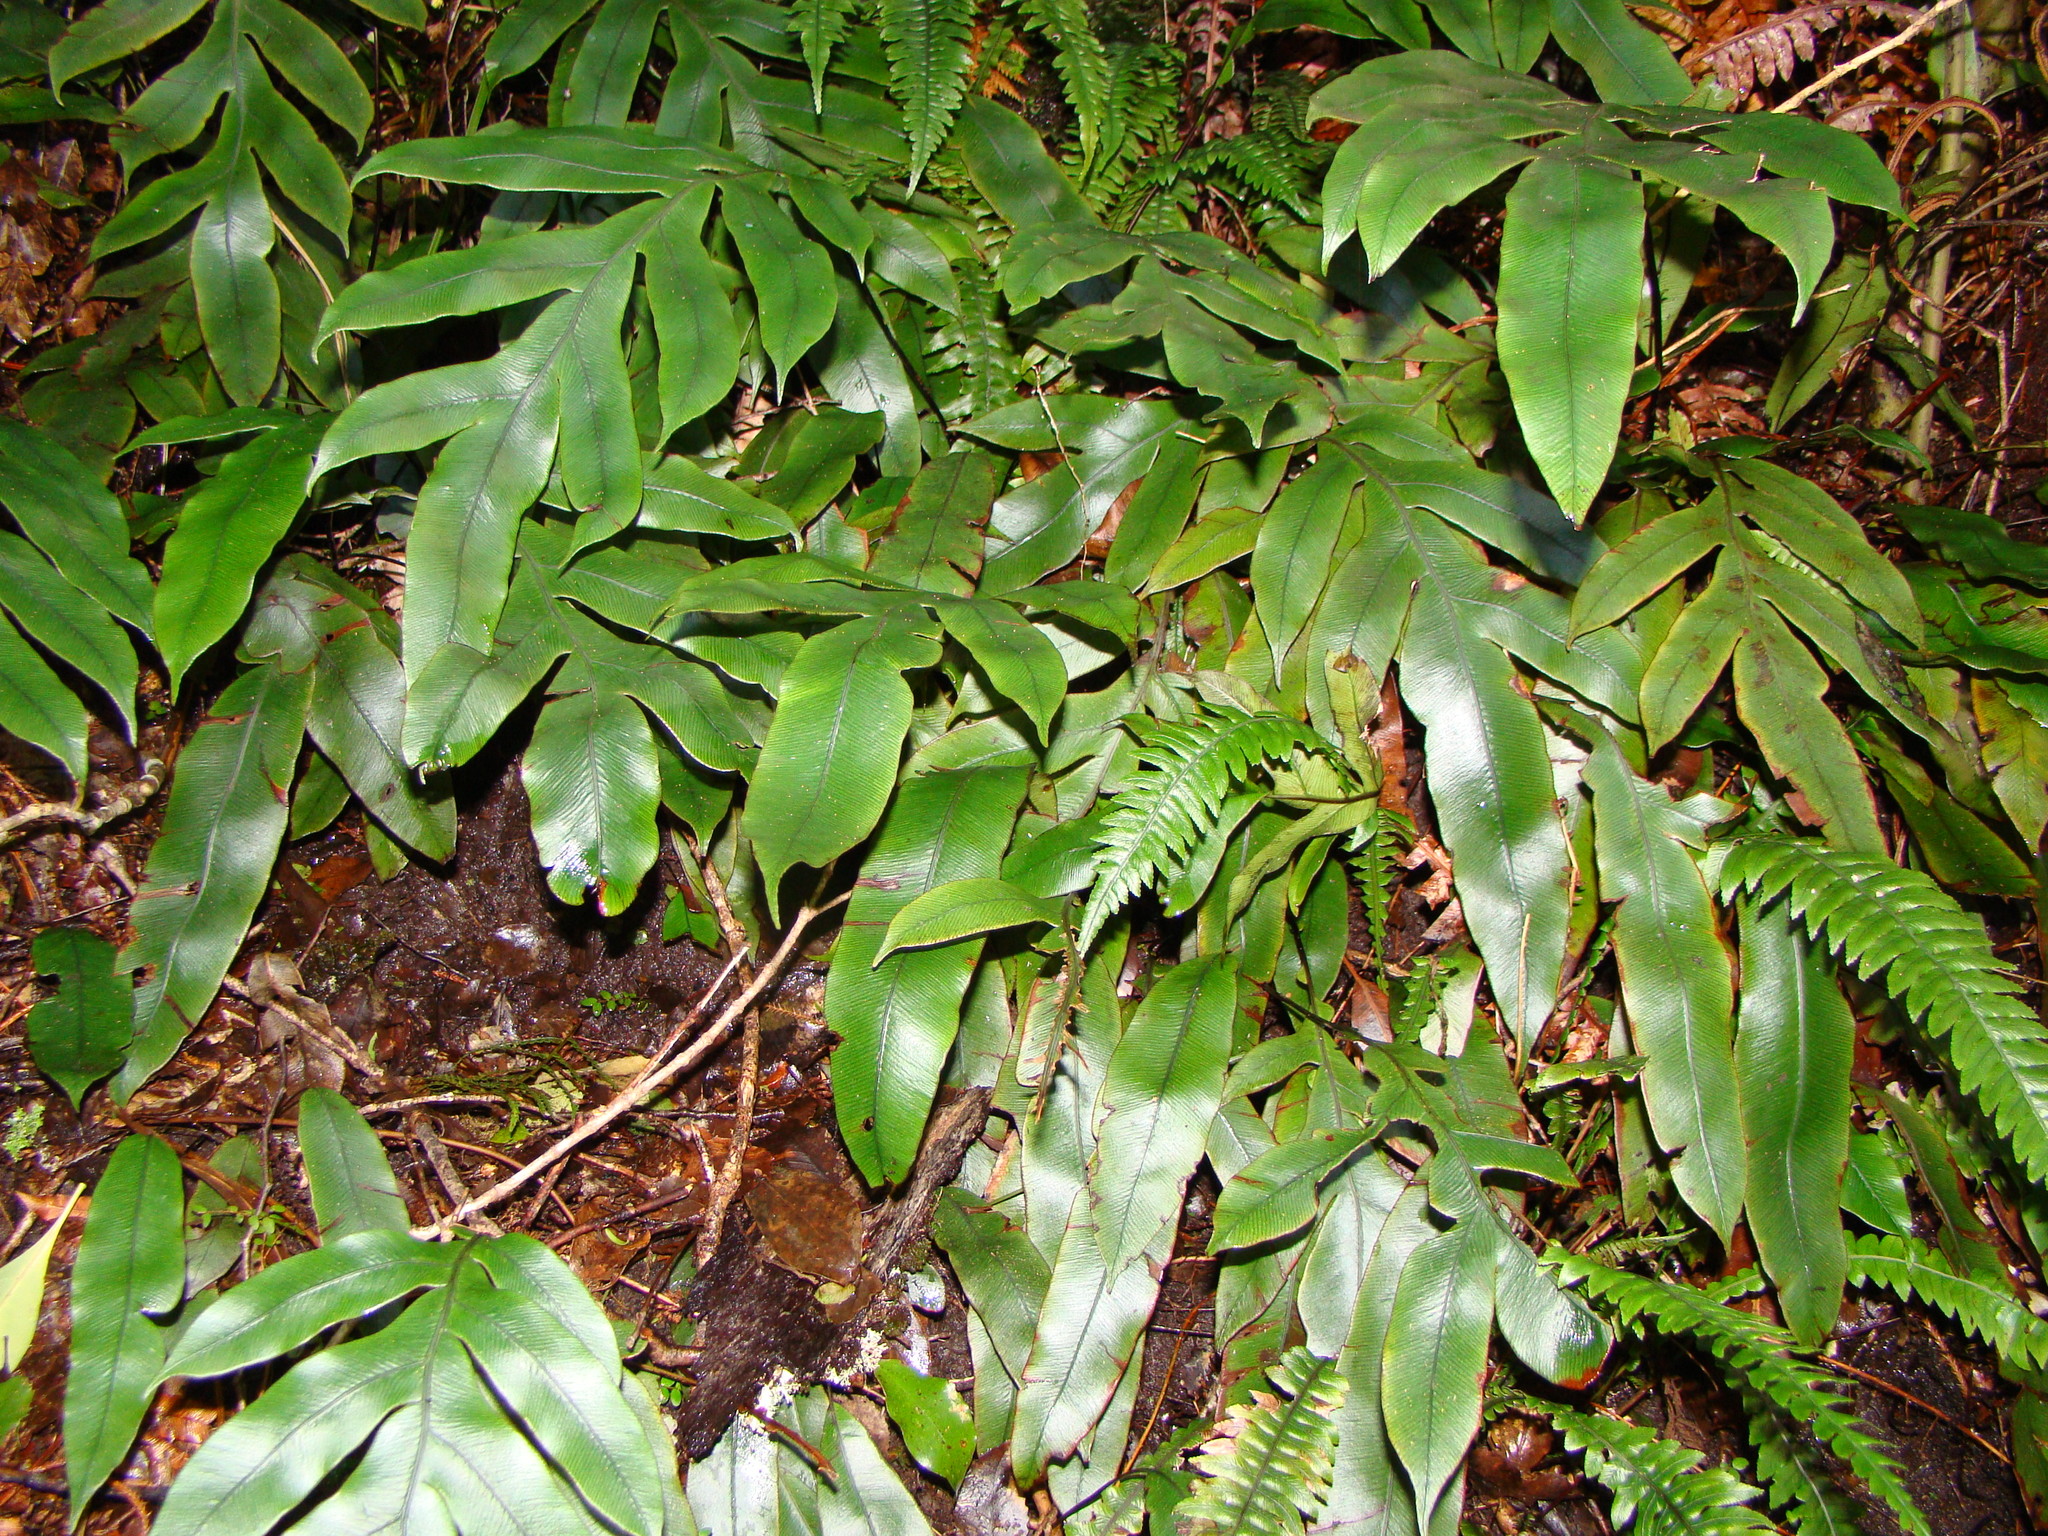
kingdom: Plantae
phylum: Tracheophyta
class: Polypodiopsida
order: Polypodiales
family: Blechnaceae
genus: Austroblechnum
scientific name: Austroblechnum colensoi
